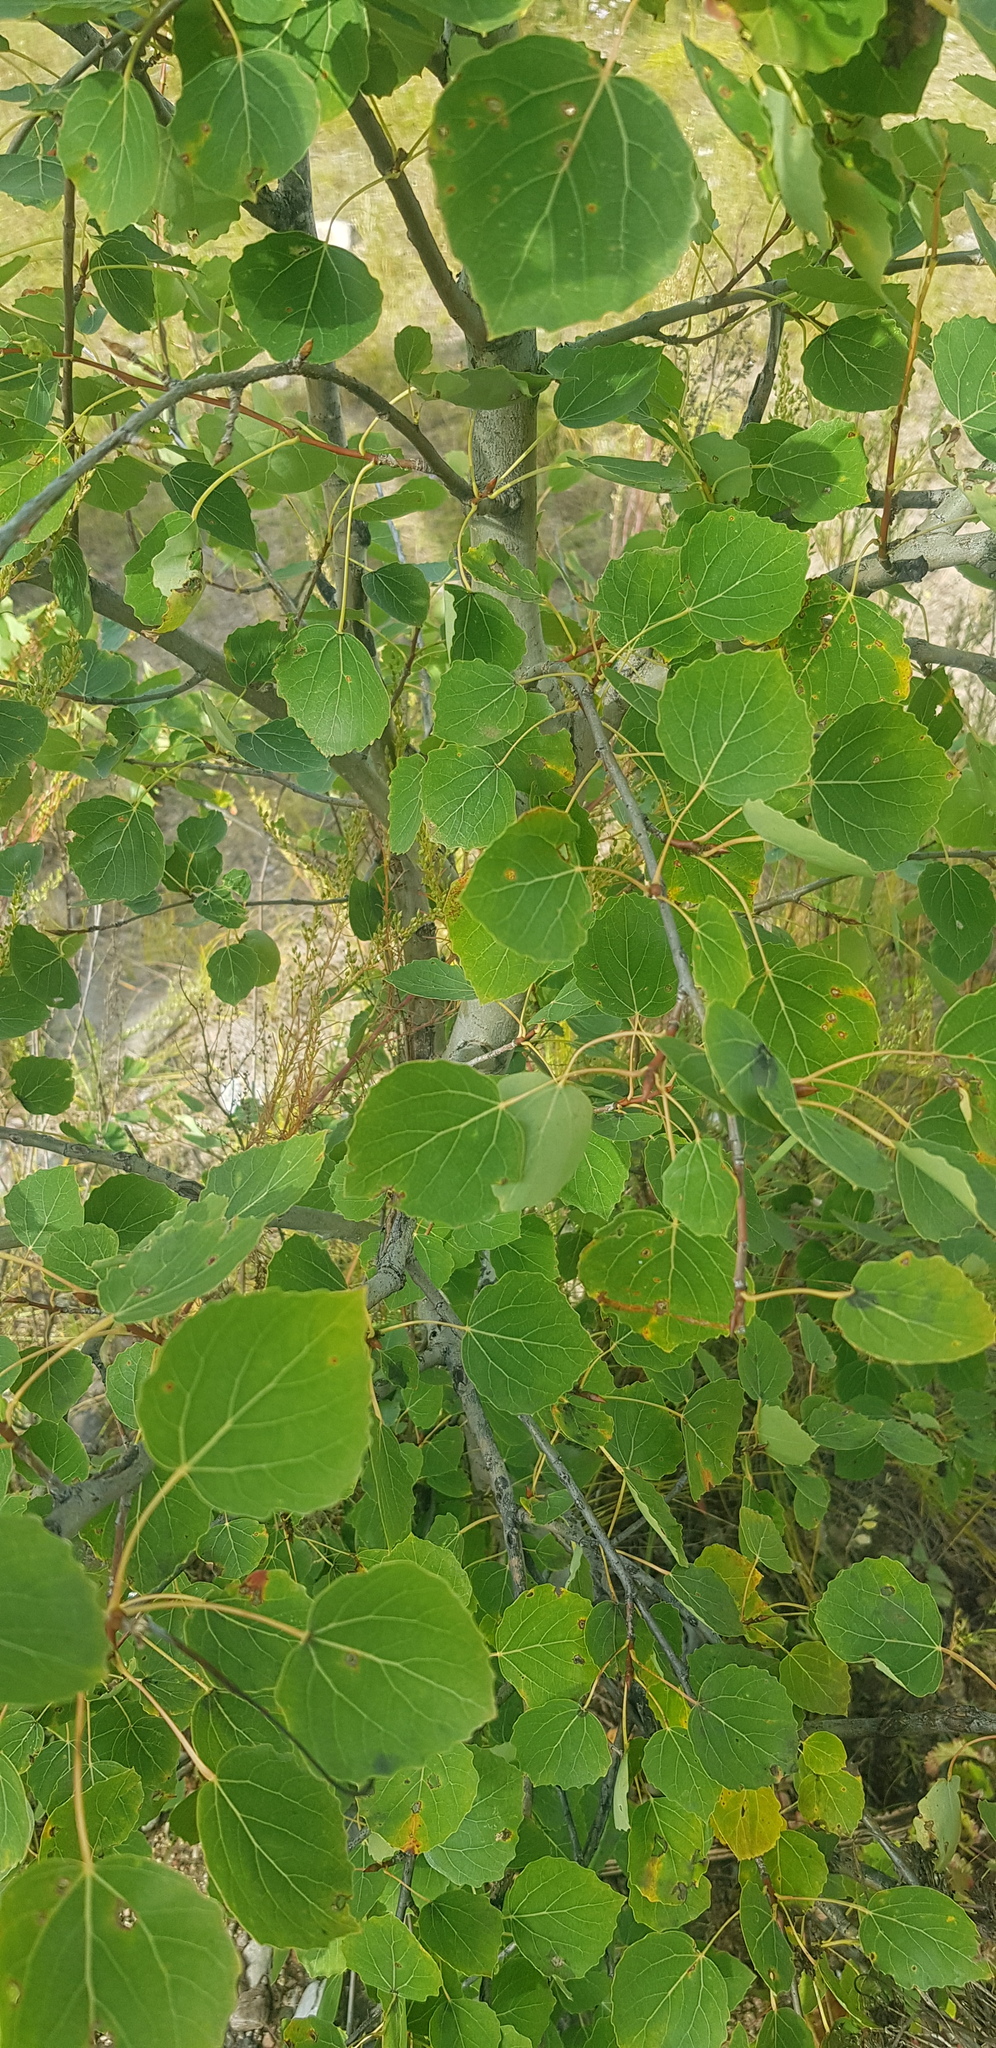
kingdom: Plantae
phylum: Tracheophyta
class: Magnoliopsida
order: Malpighiales
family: Salicaceae
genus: Populus
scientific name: Populus tremula
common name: European aspen
